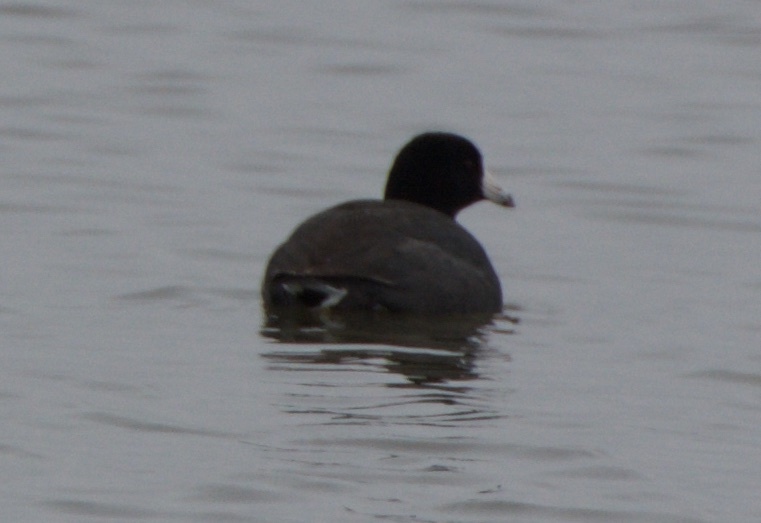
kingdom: Animalia
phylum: Chordata
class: Aves
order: Gruiformes
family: Rallidae
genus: Fulica
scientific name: Fulica americana
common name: American coot
